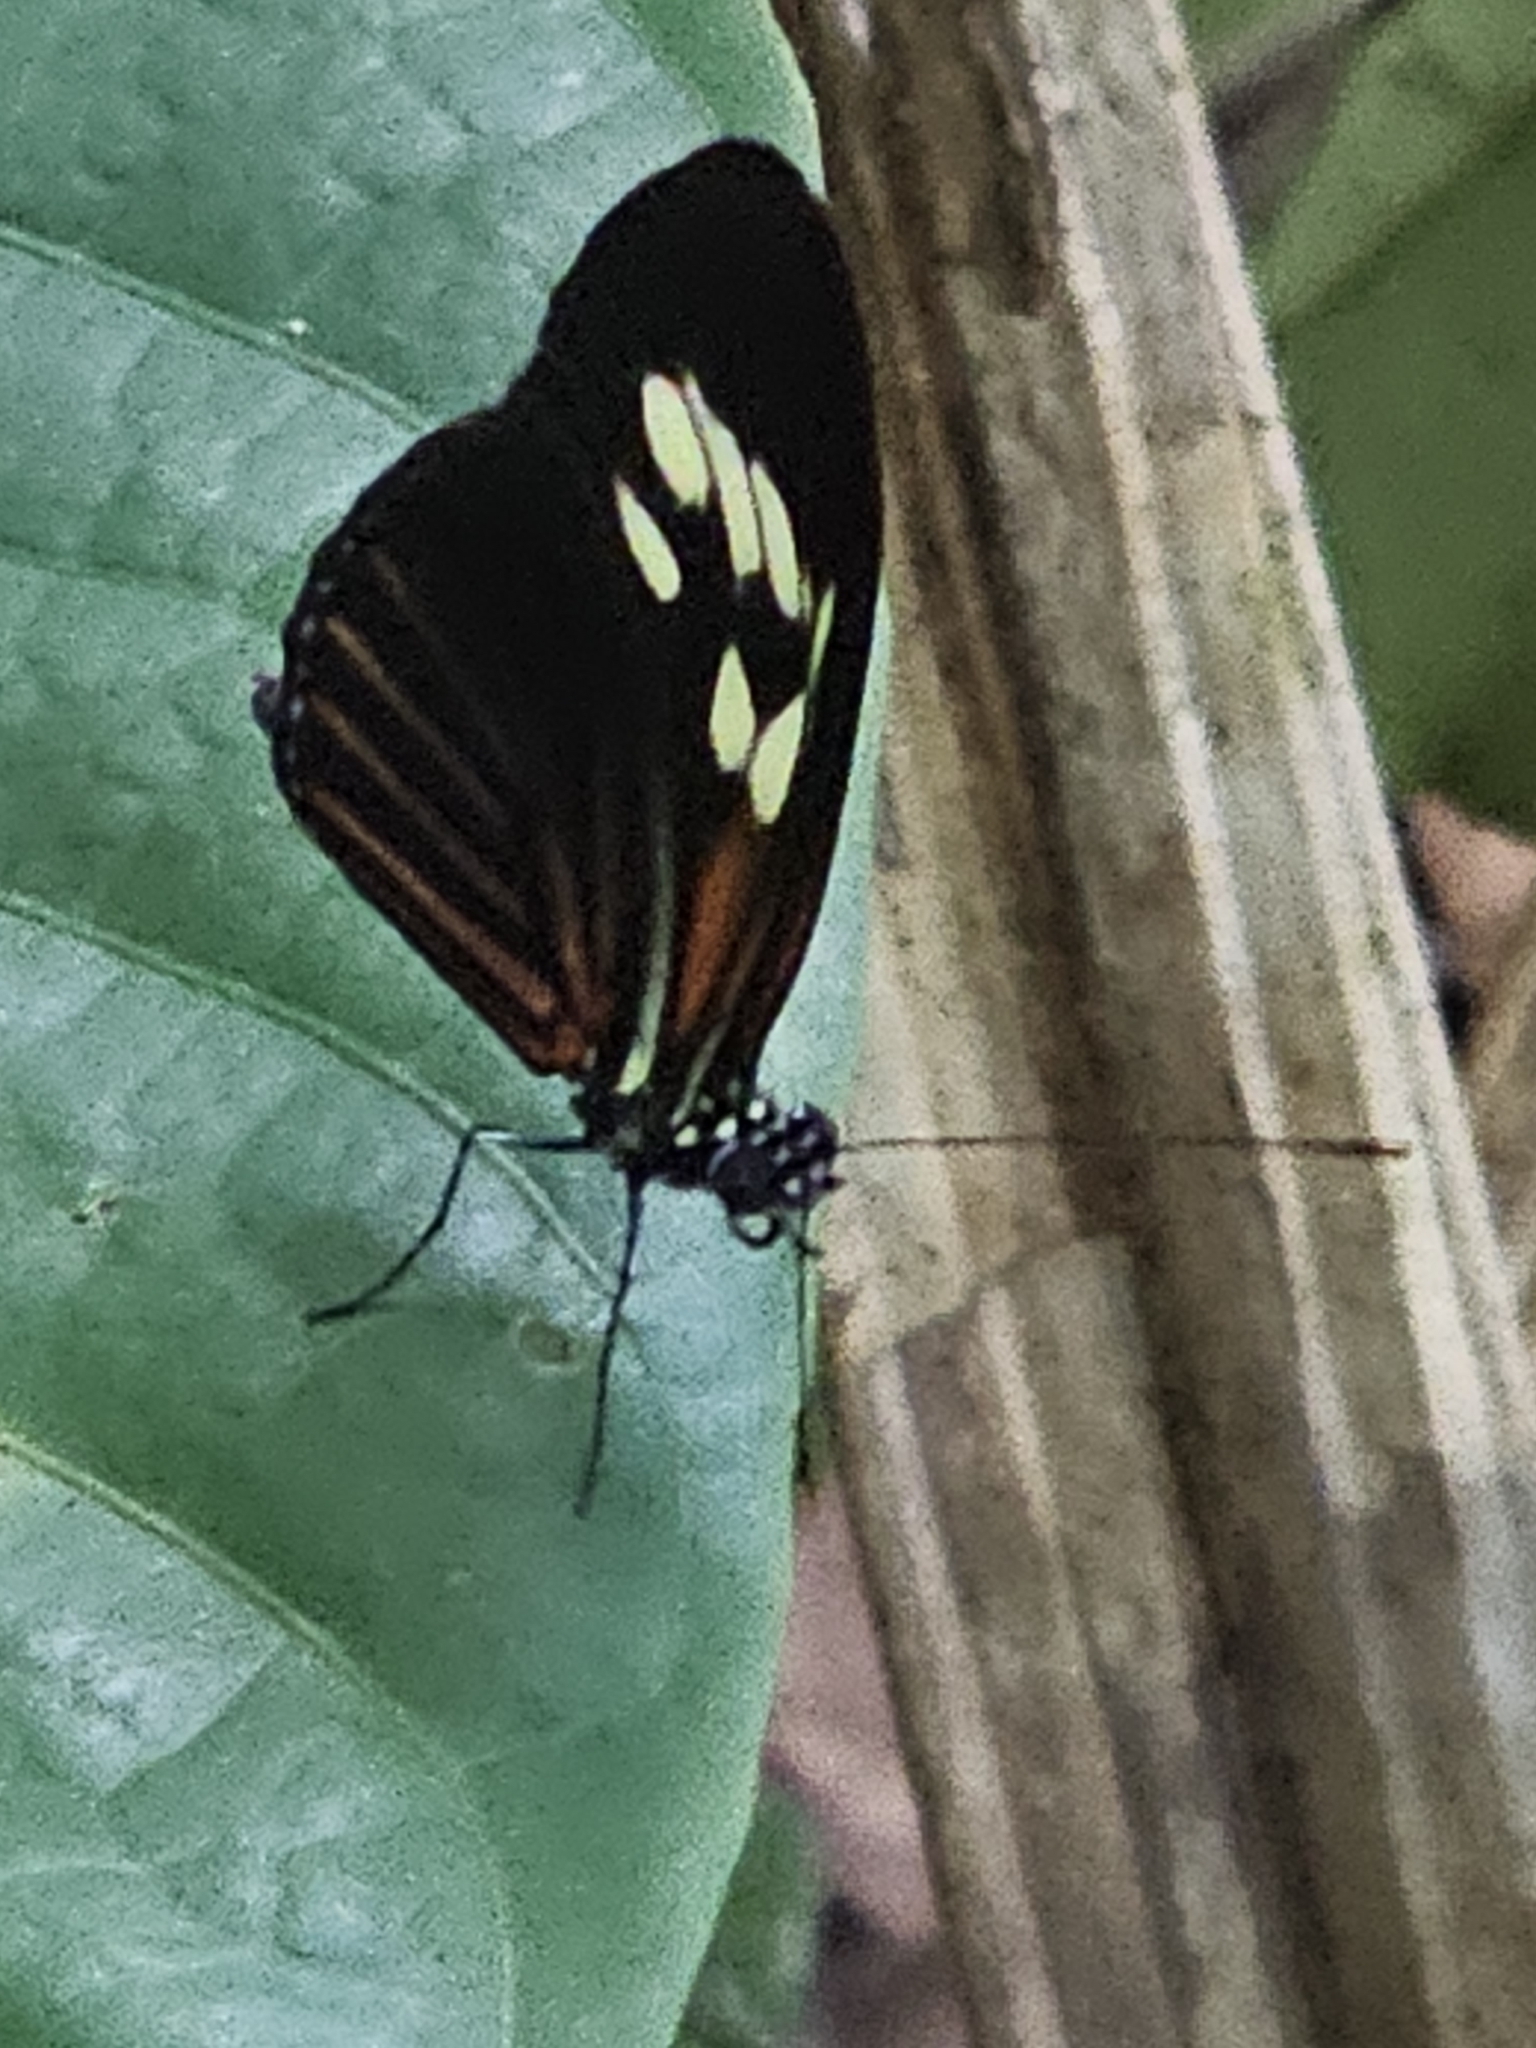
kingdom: Animalia
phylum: Arthropoda
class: Insecta
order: Lepidoptera
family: Nymphalidae
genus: Heliconius
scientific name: Heliconius demeter
